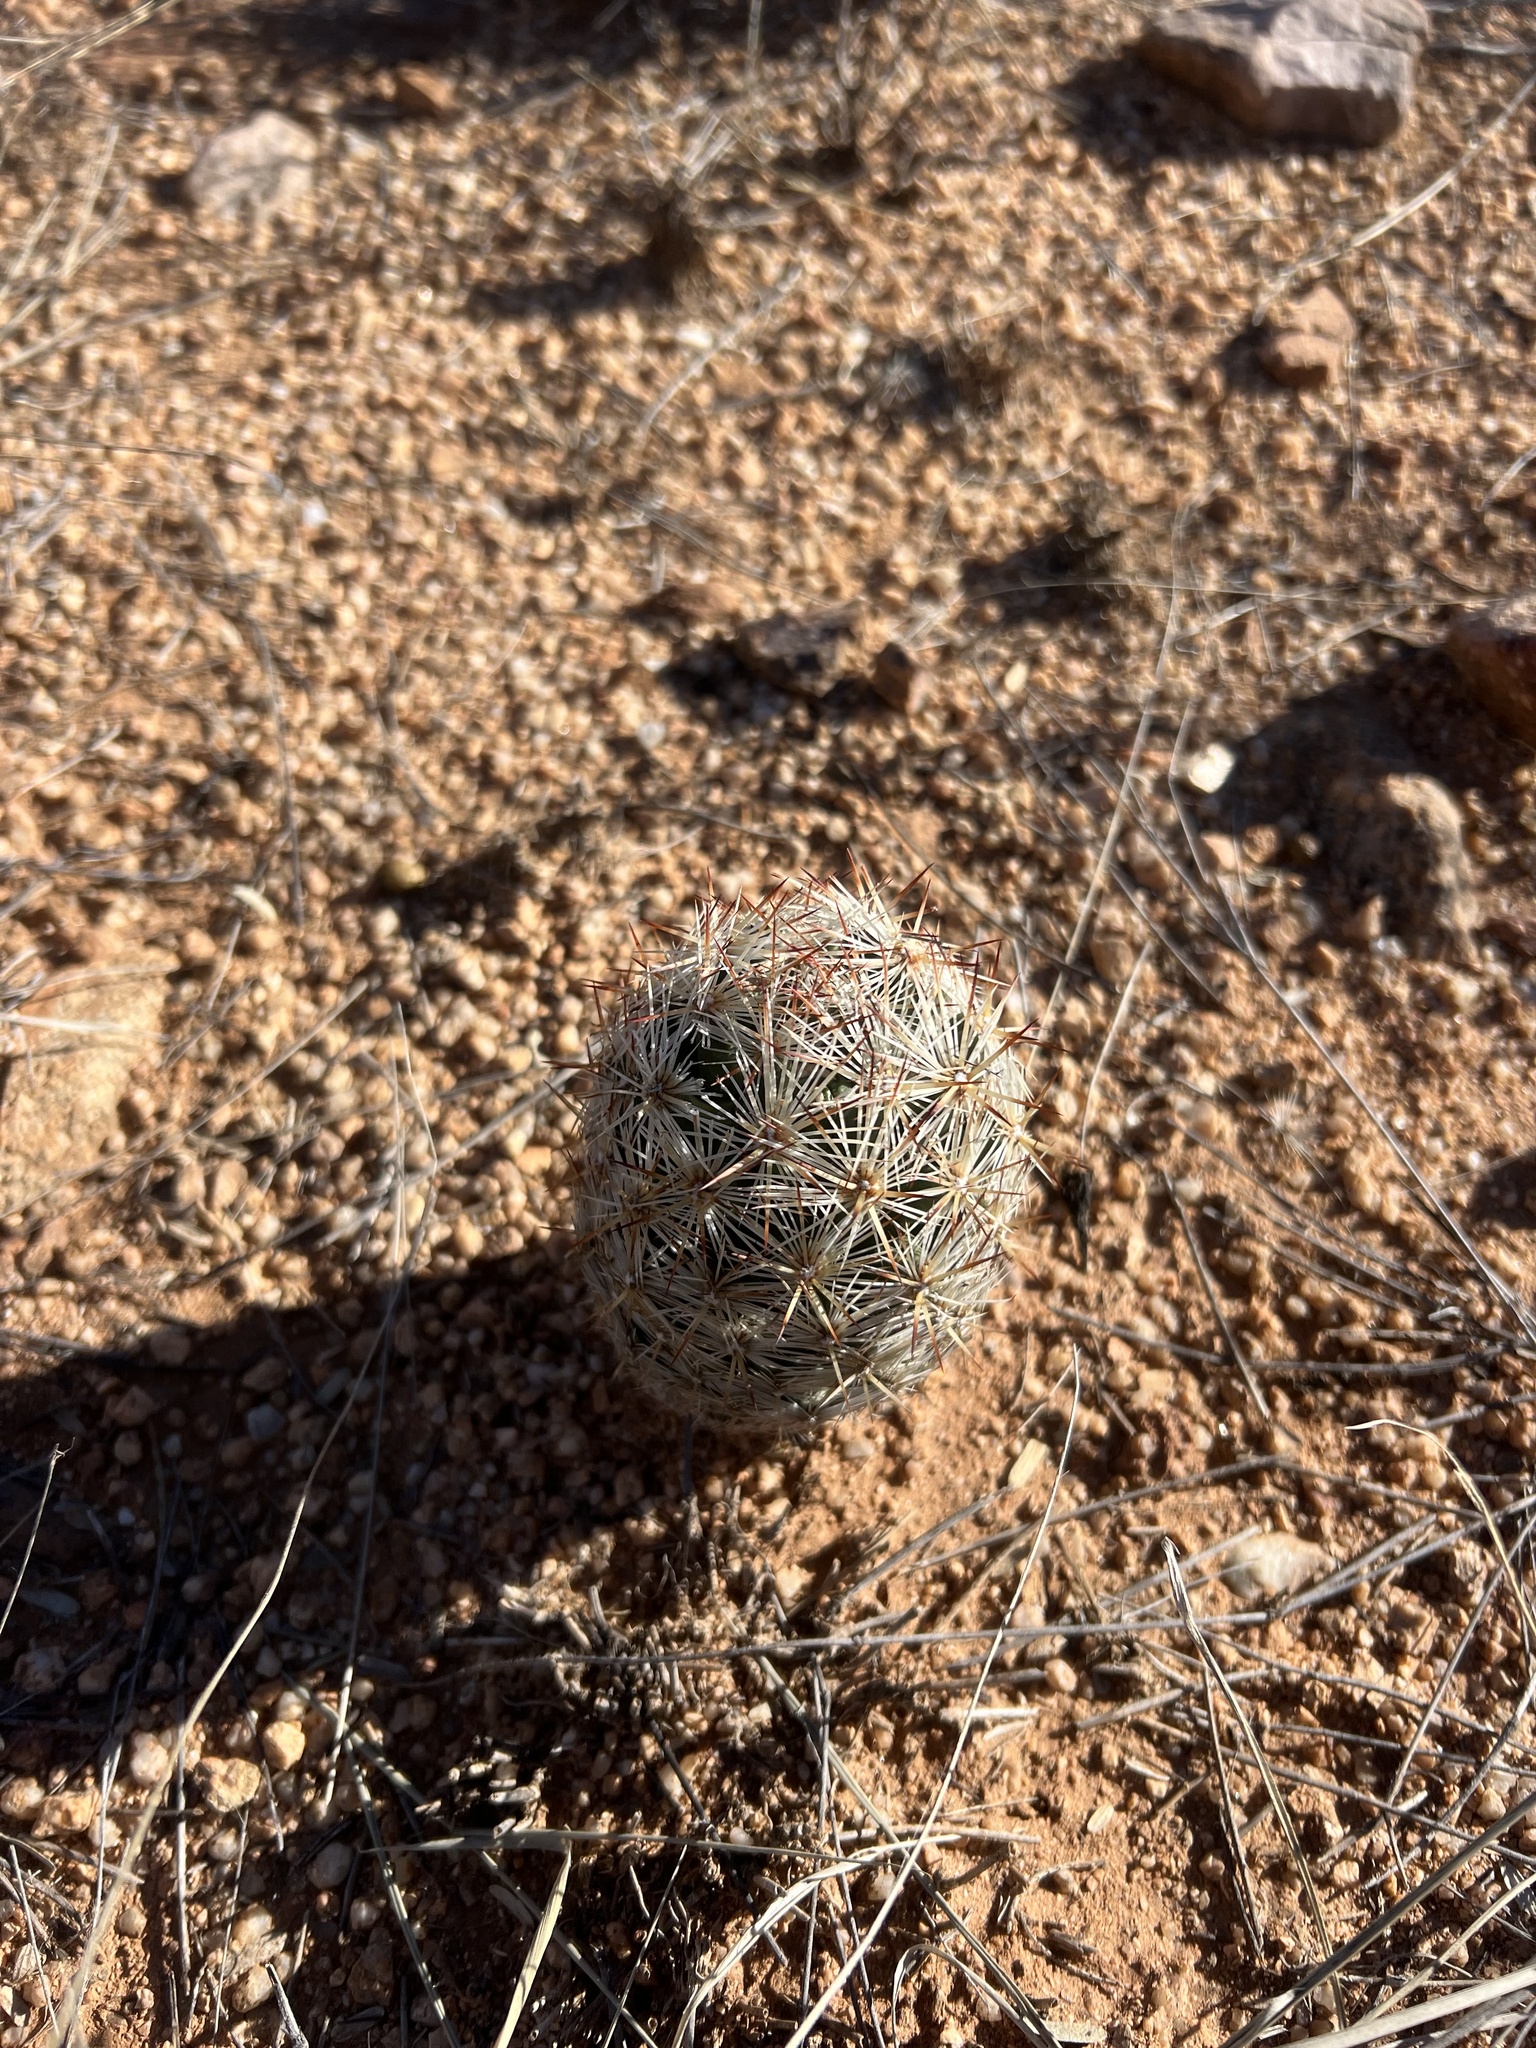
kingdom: Plantae
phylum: Tracheophyta
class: Magnoliopsida
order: Caryophyllales
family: Cactaceae
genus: Pelecyphora
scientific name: Pelecyphora vivipara
